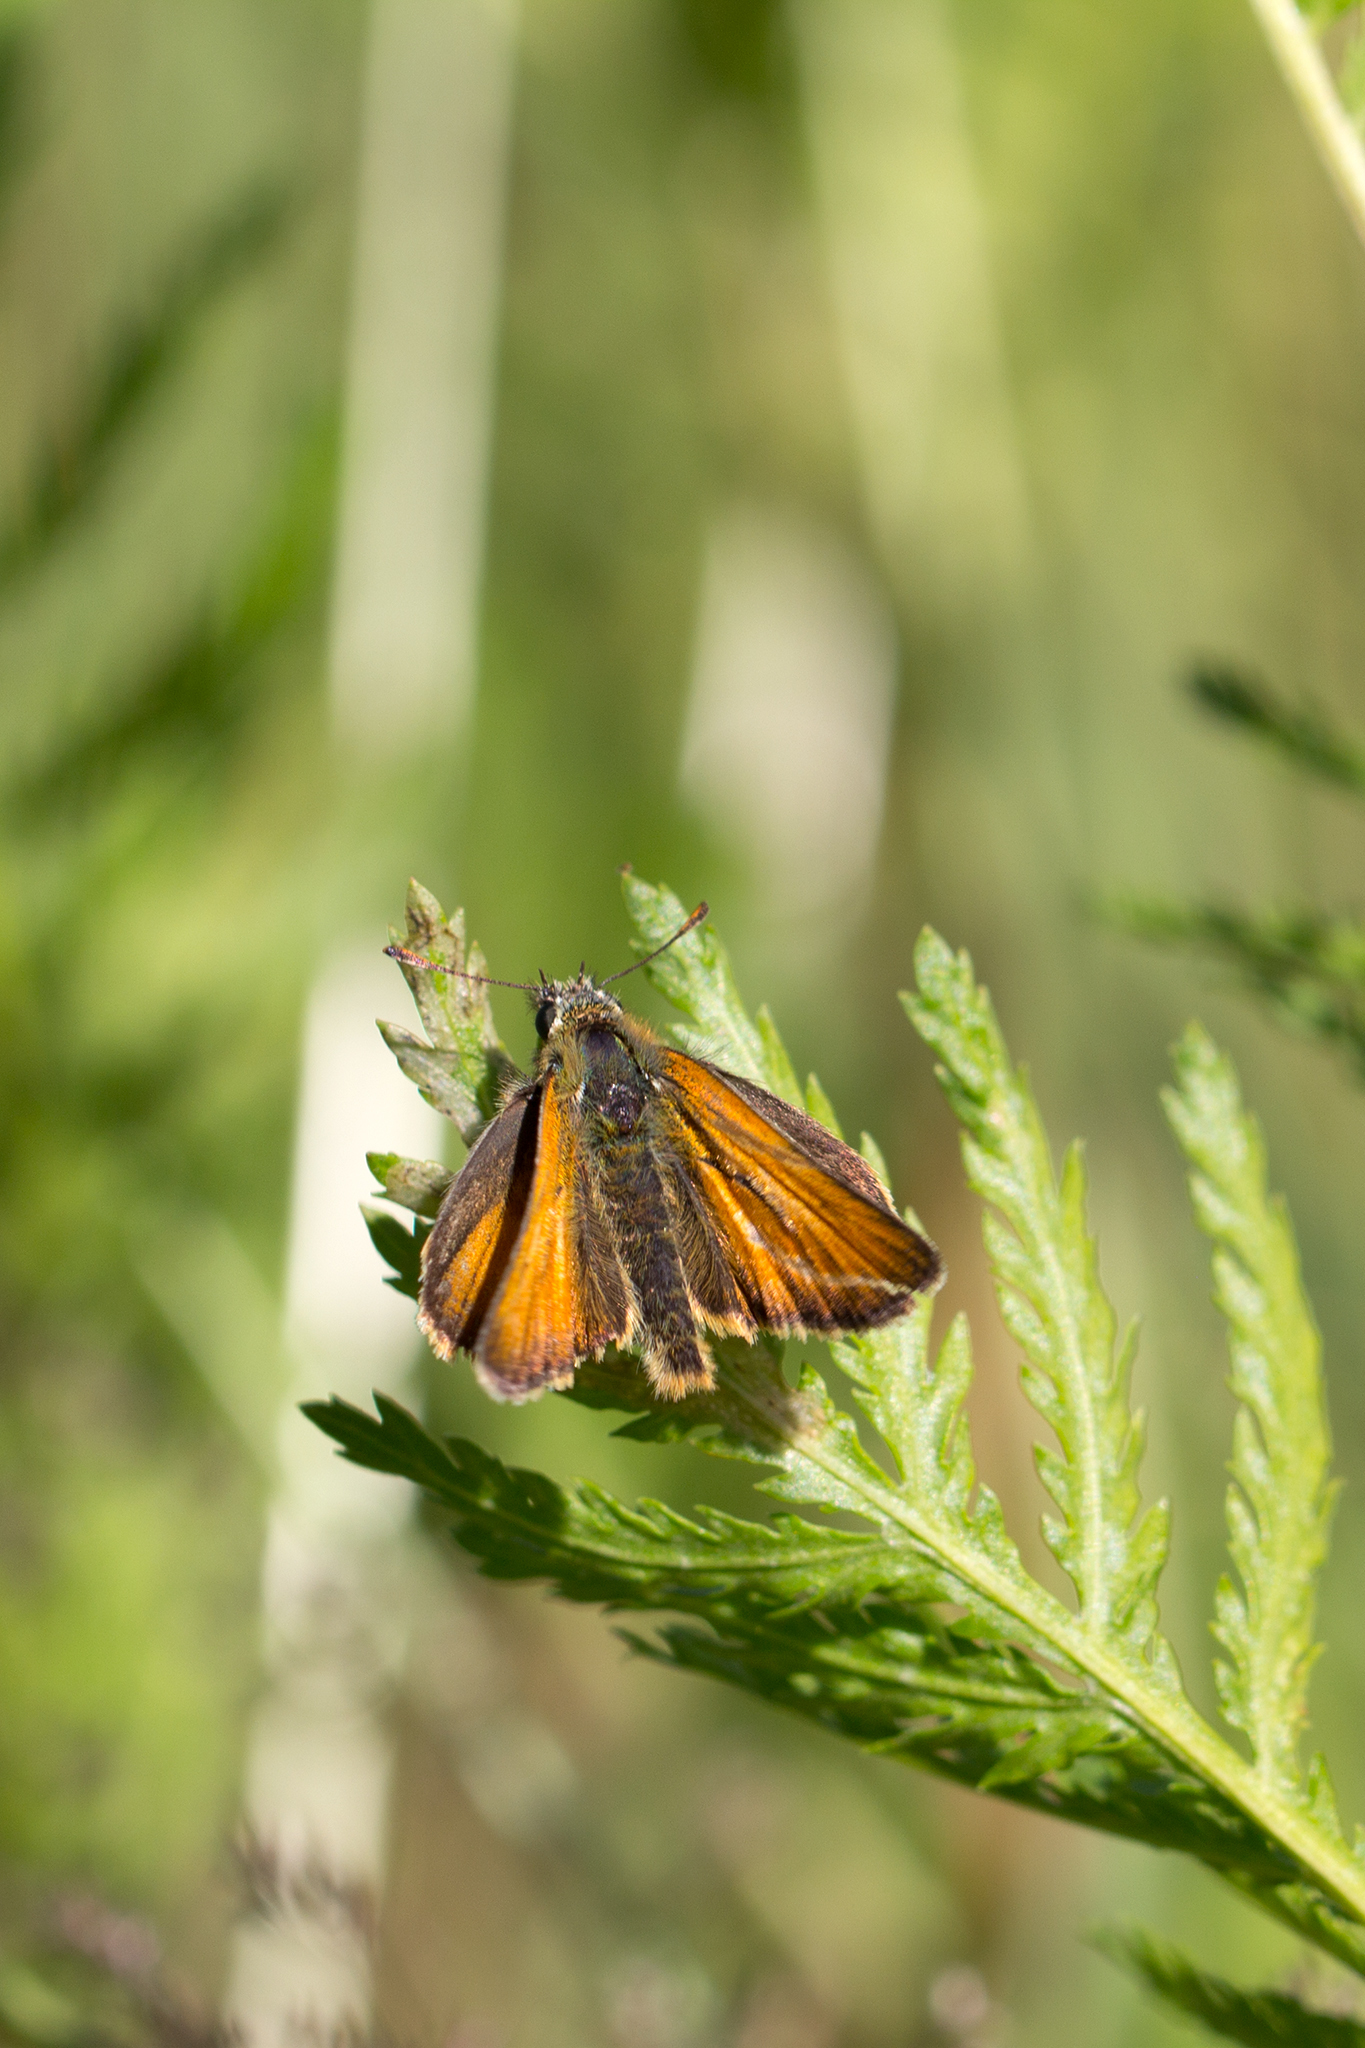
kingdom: Animalia
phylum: Arthropoda
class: Insecta
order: Lepidoptera
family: Hesperiidae
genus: Thymelicus
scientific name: Thymelicus sylvestris
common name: Small skipper
